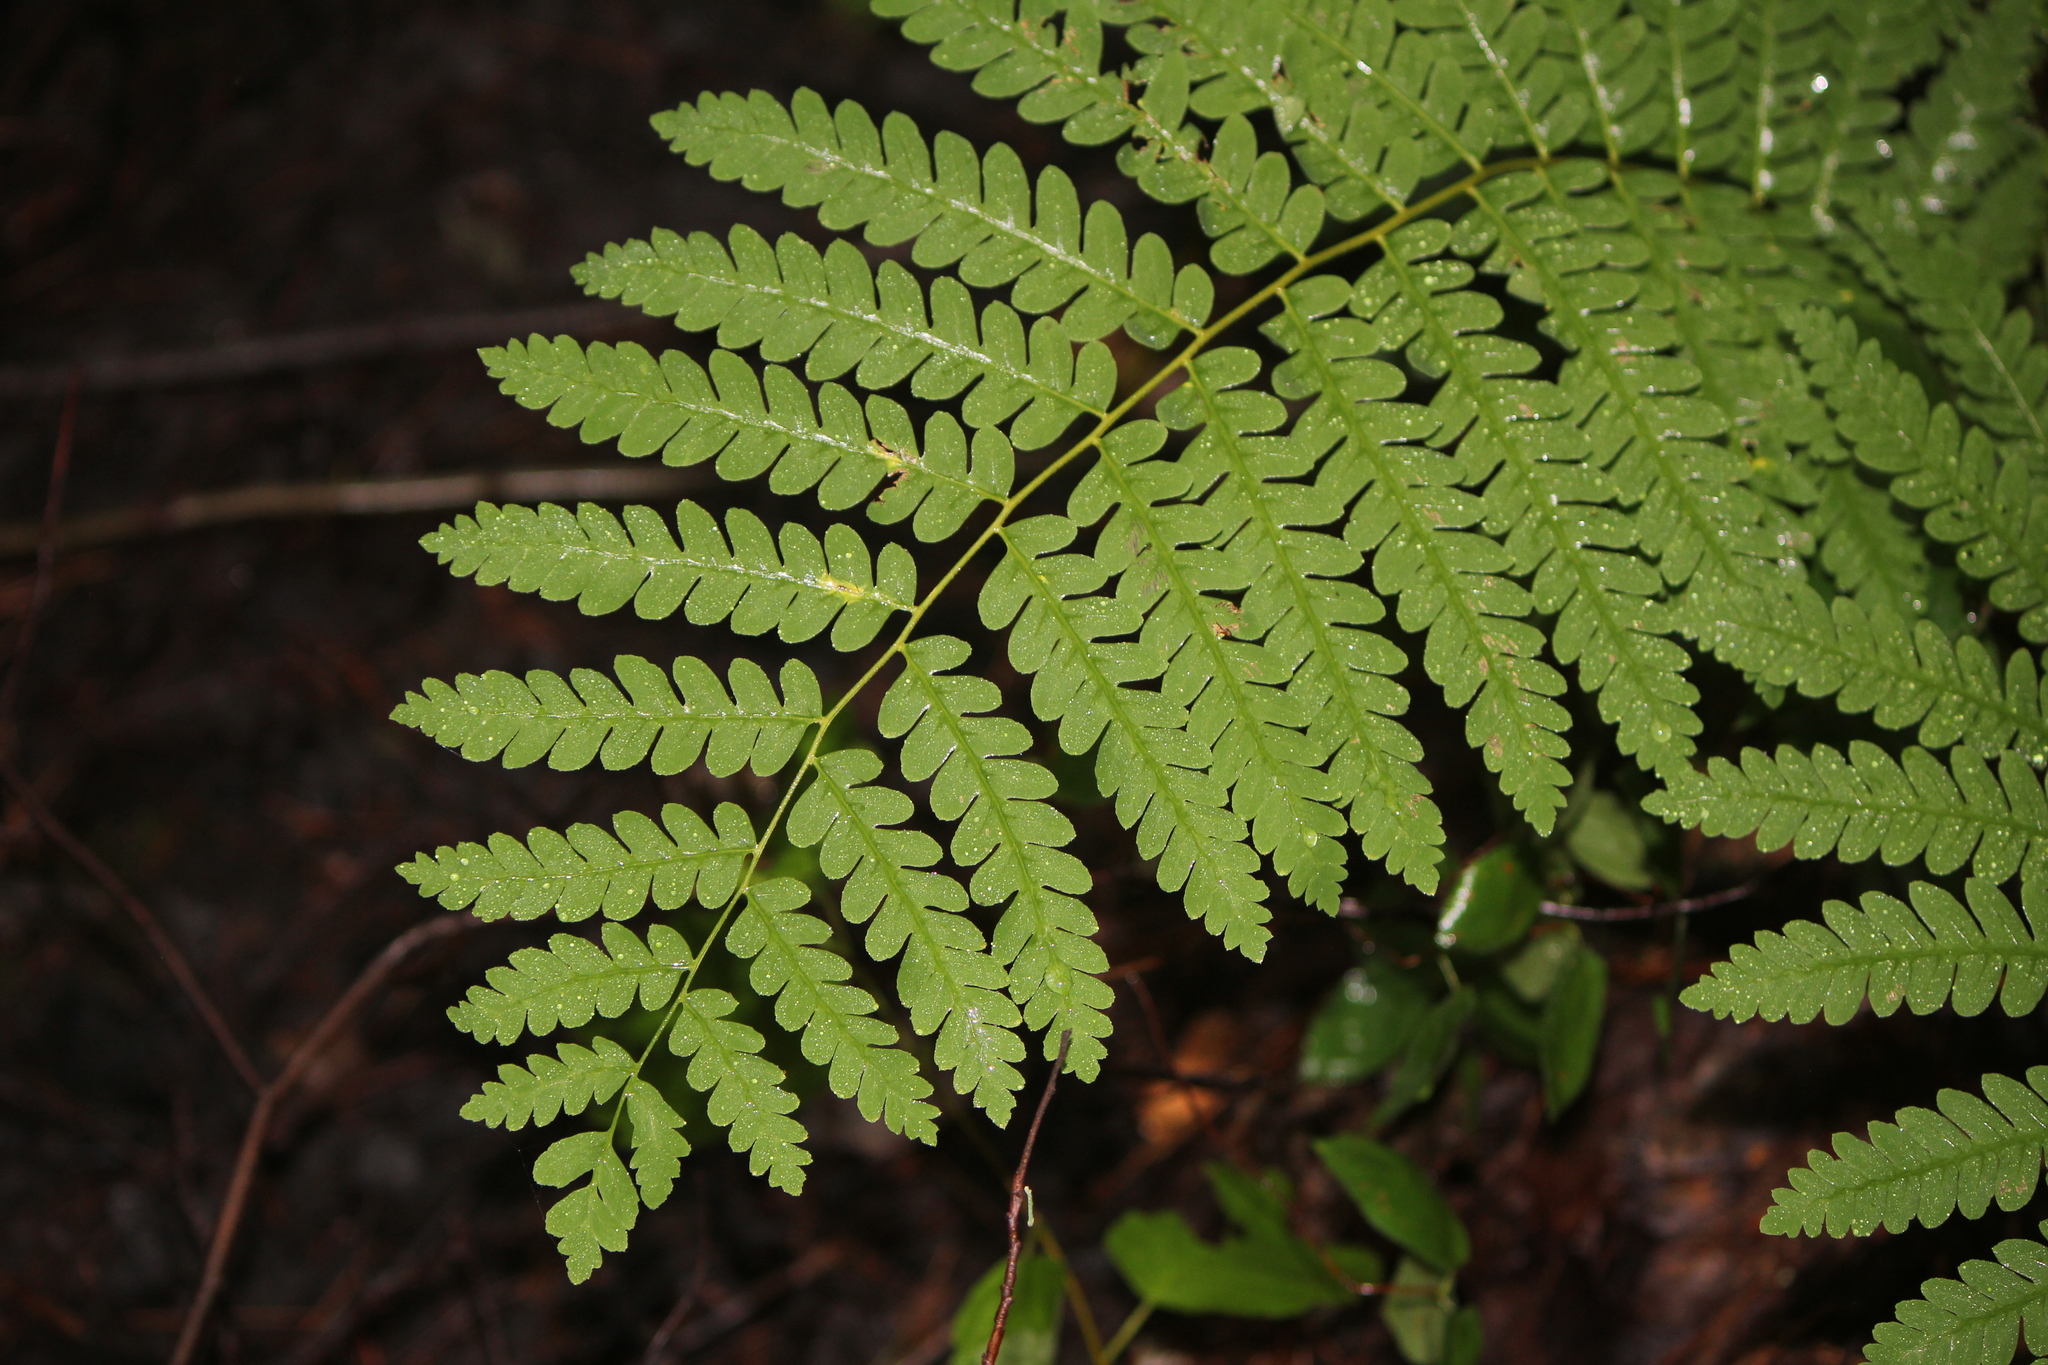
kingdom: Plantae
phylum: Tracheophyta
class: Polypodiopsida
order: Osmundales
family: Osmundaceae
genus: Claytosmunda
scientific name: Claytosmunda claytoniana
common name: Clayton's fern
